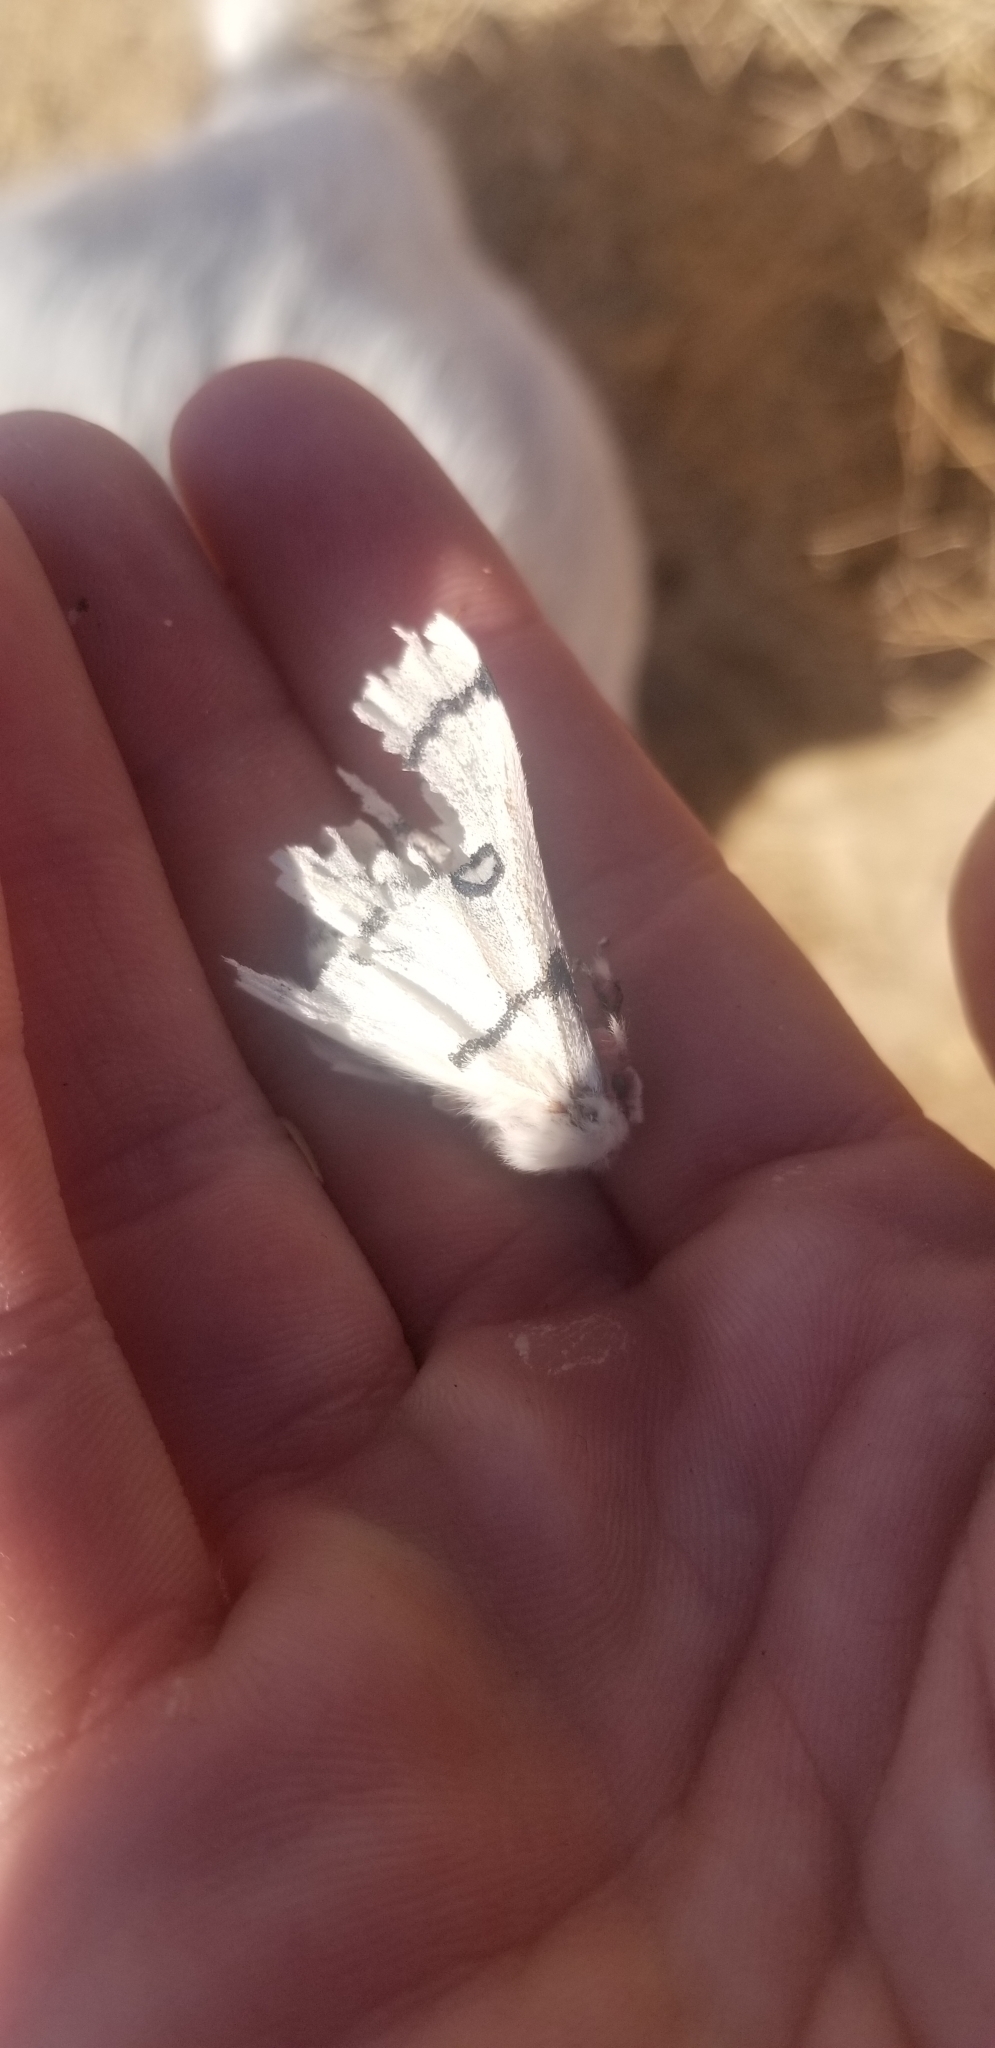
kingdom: Animalia
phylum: Arthropoda
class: Insecta
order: Lepidoptera
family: Saturniidae
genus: Hemileuca
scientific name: Hemileuca burnsi
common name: Burns' buckmoth
